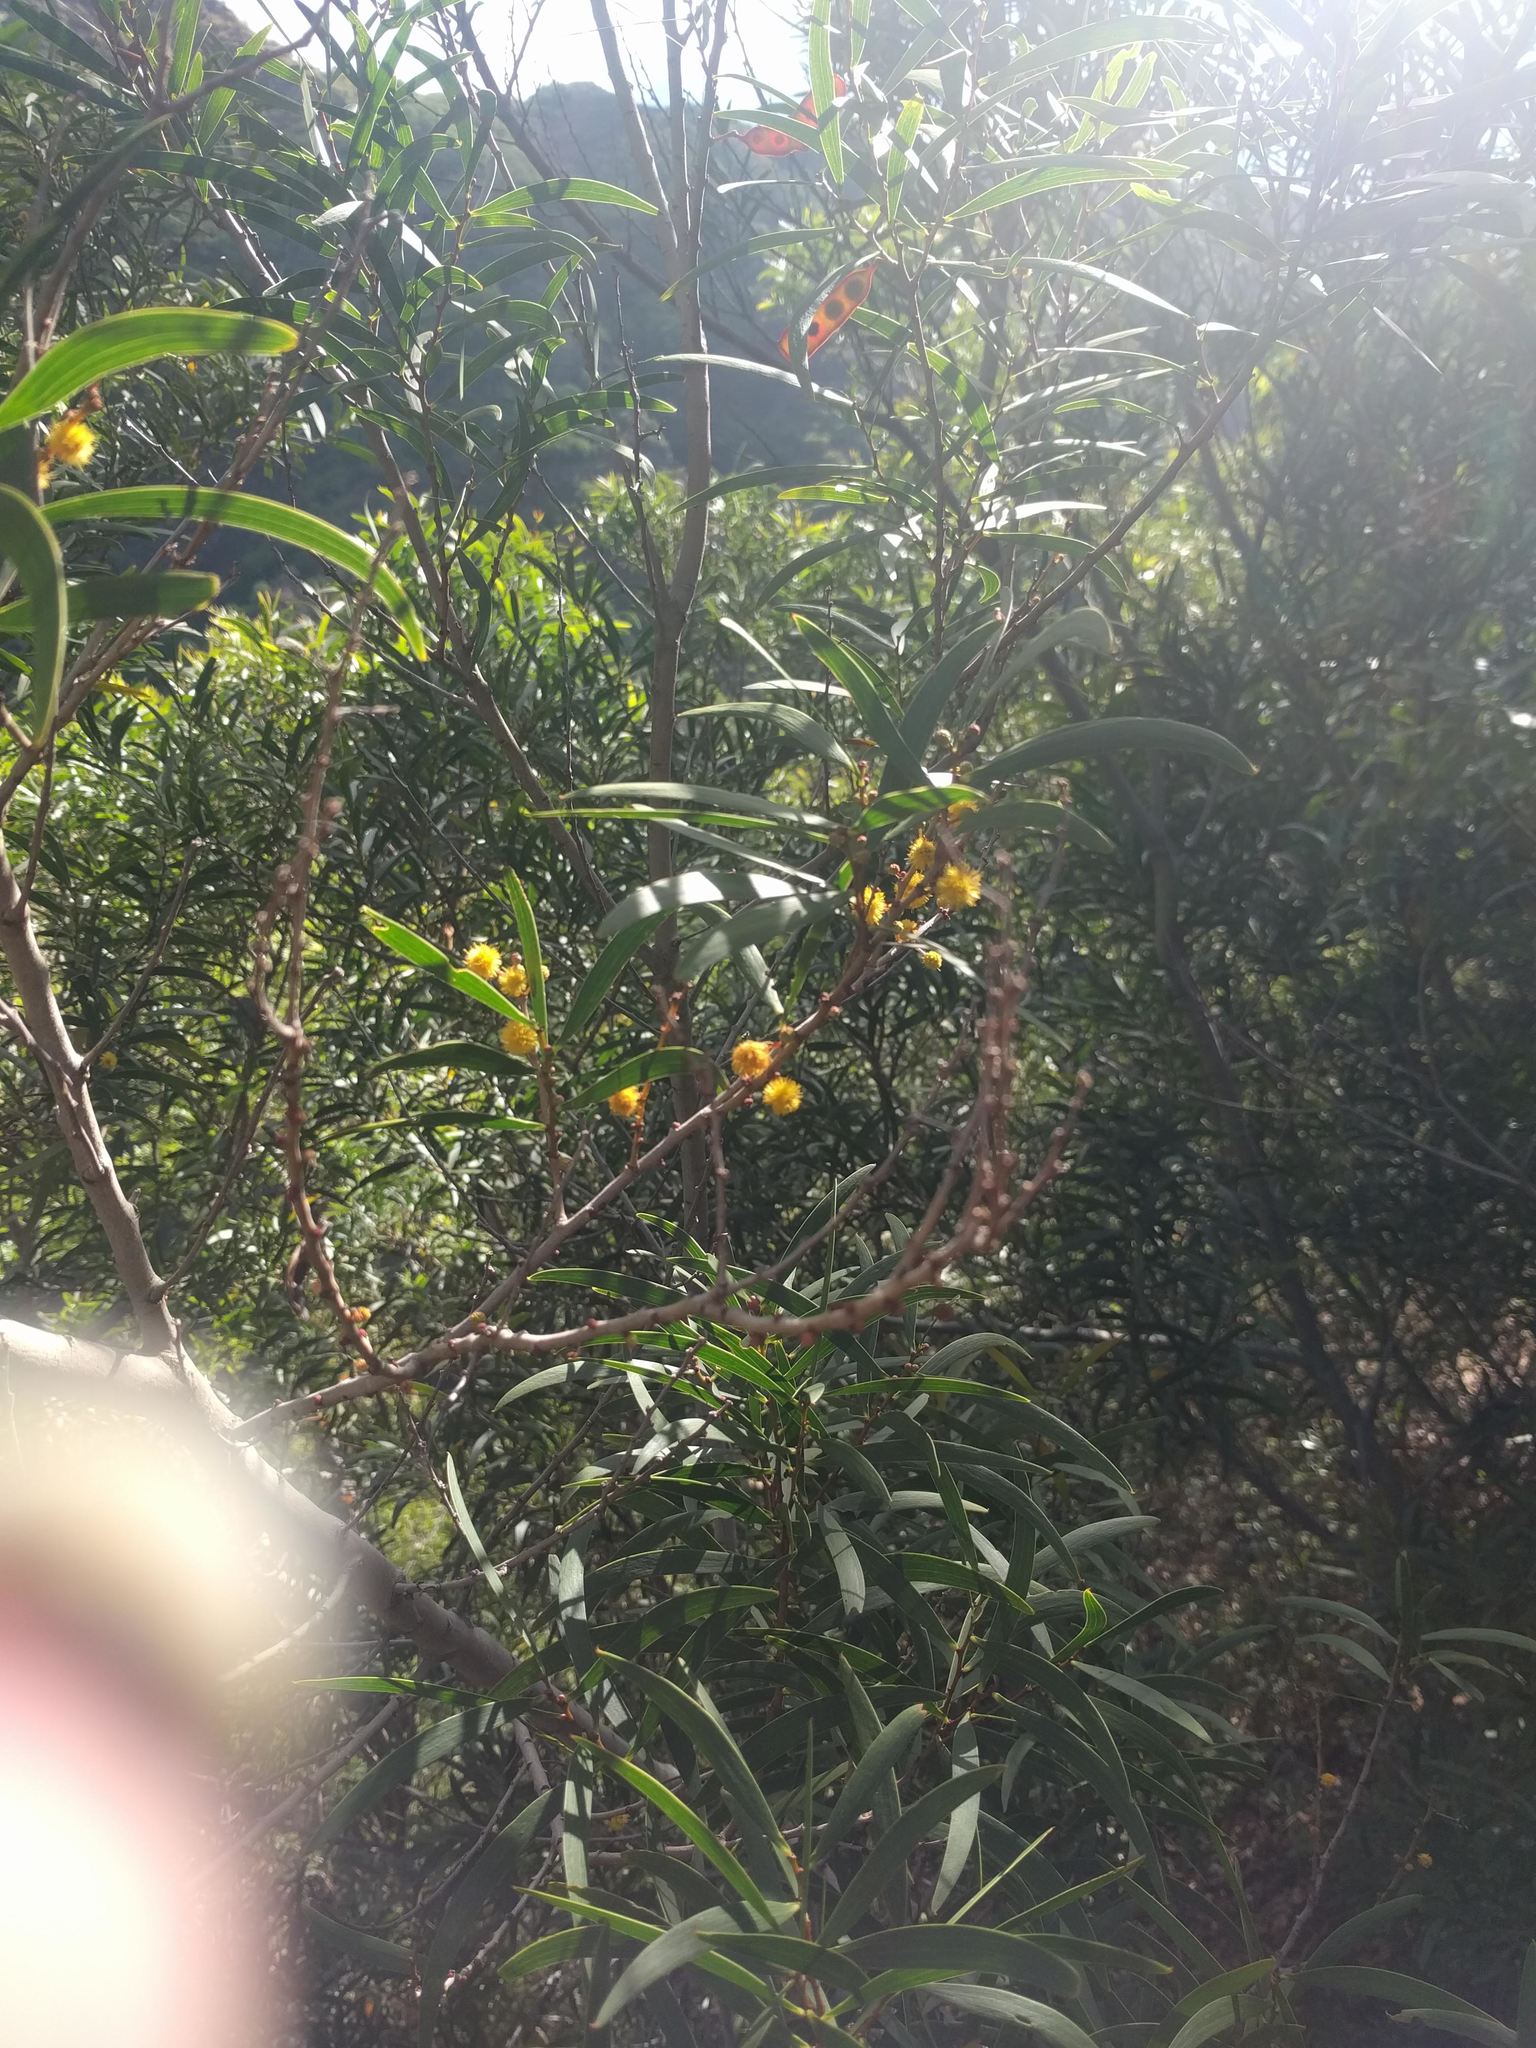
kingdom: Plantae
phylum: Tracheophyta
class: Magnoliopsida
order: Fabales
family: Fabaceae
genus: Acacia
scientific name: Acacia confusa
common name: Formosan koa
